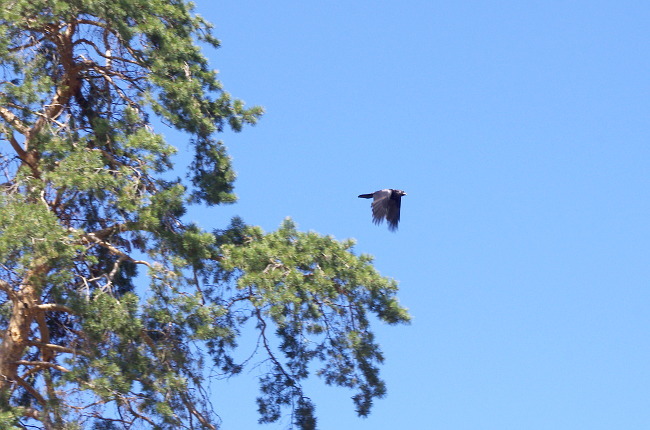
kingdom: Plantae
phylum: Tracheophyta
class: Pinopsida
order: Pinales
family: Pinaceae
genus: Pinus
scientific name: Pinus sylvestris
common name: Scots pine
